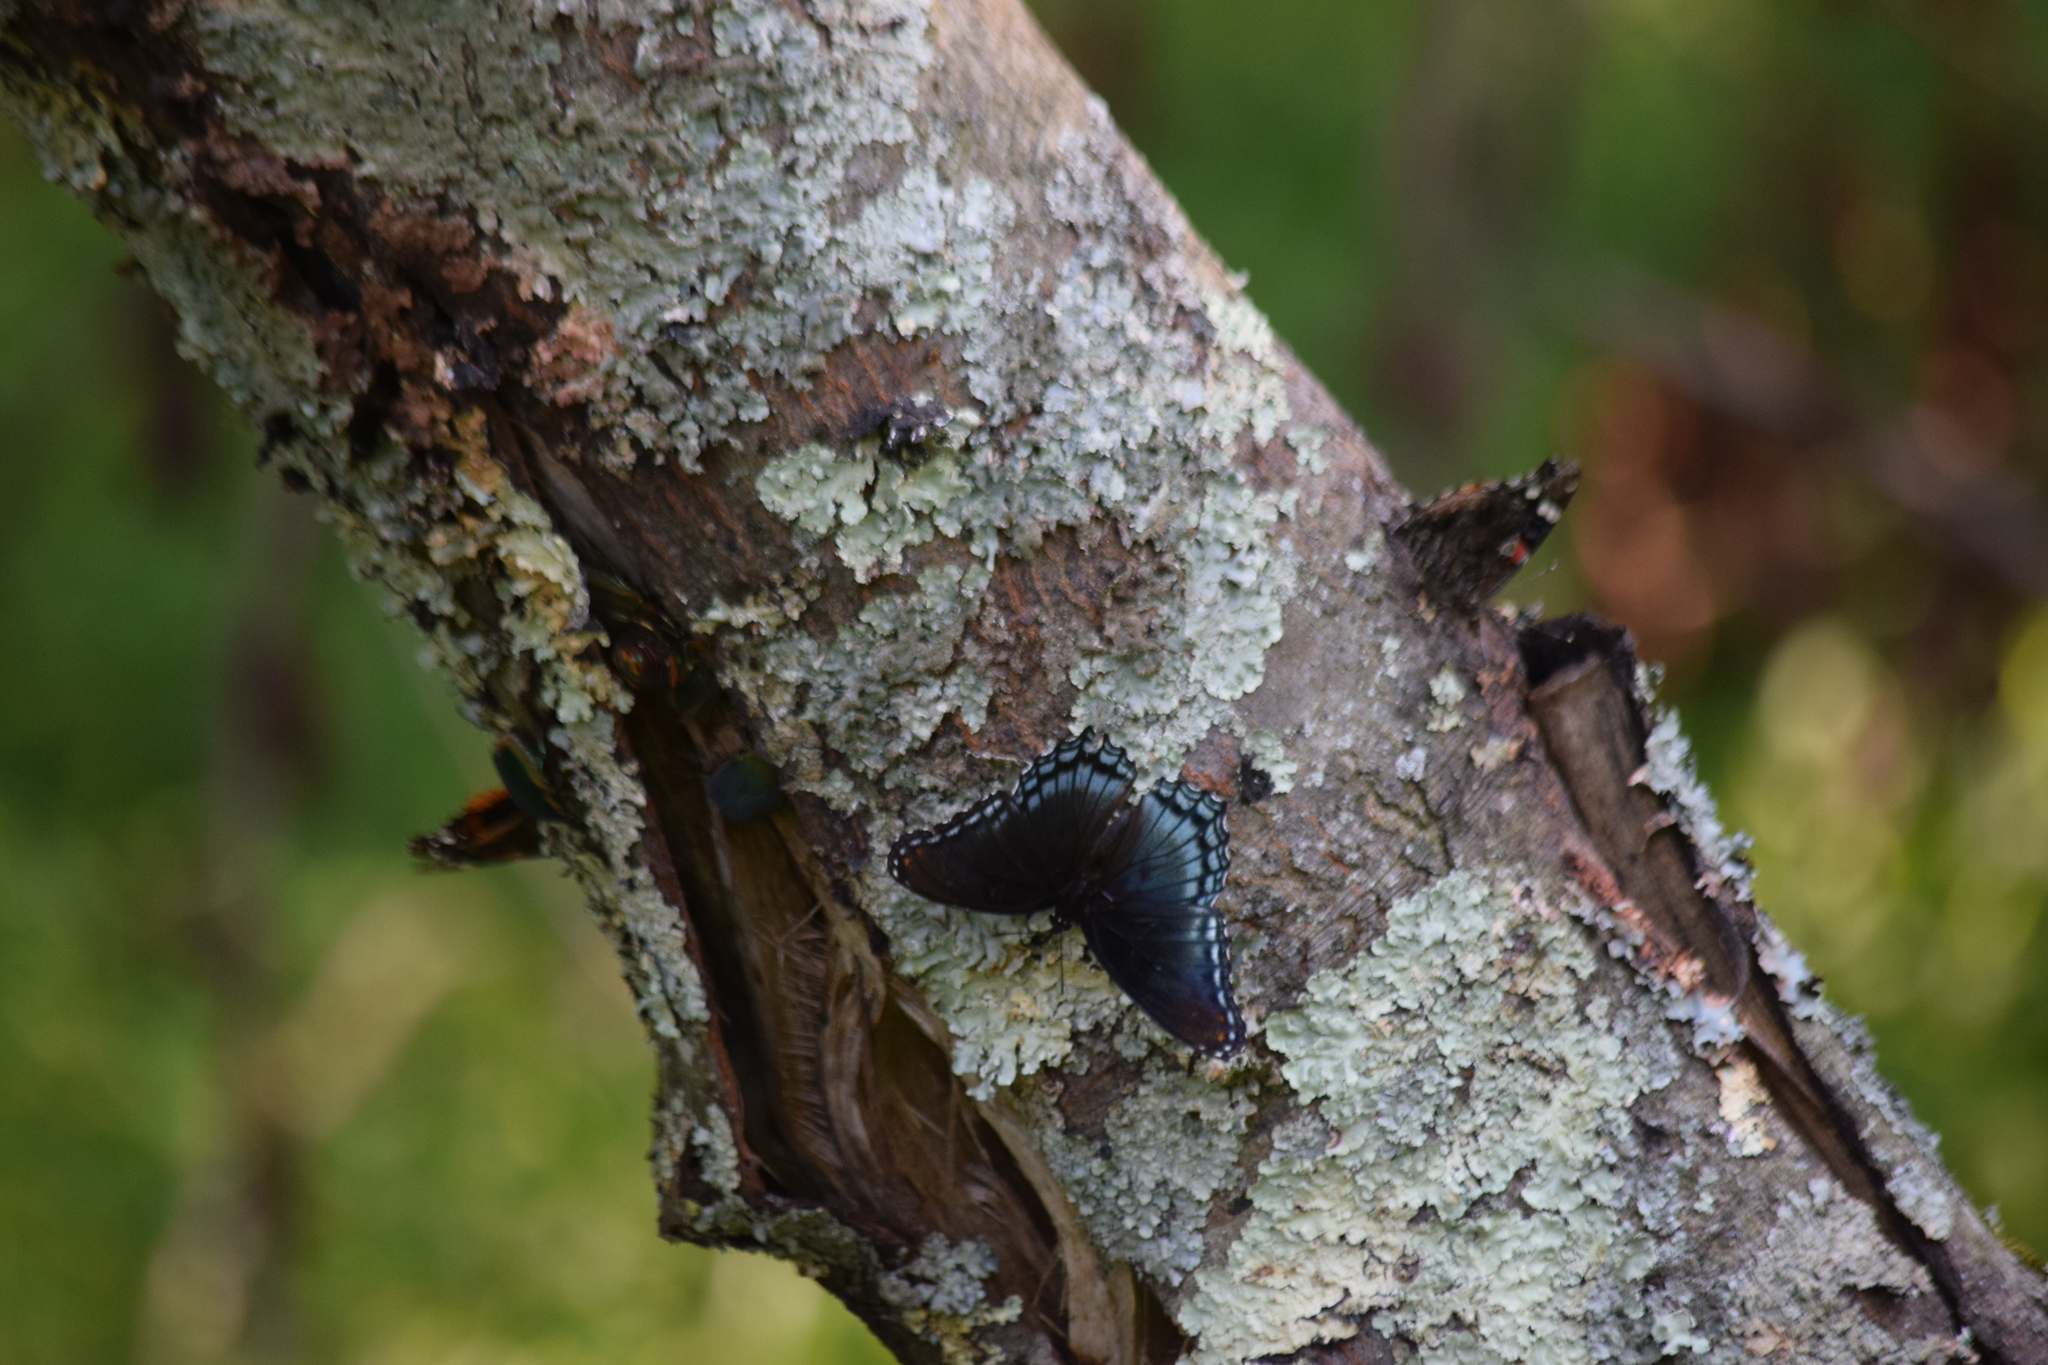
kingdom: Animalia
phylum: Arthropoda
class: Insecta
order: Lepidoptera
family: Nymphalidae
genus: Limenitis
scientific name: Limenitis astyanax
